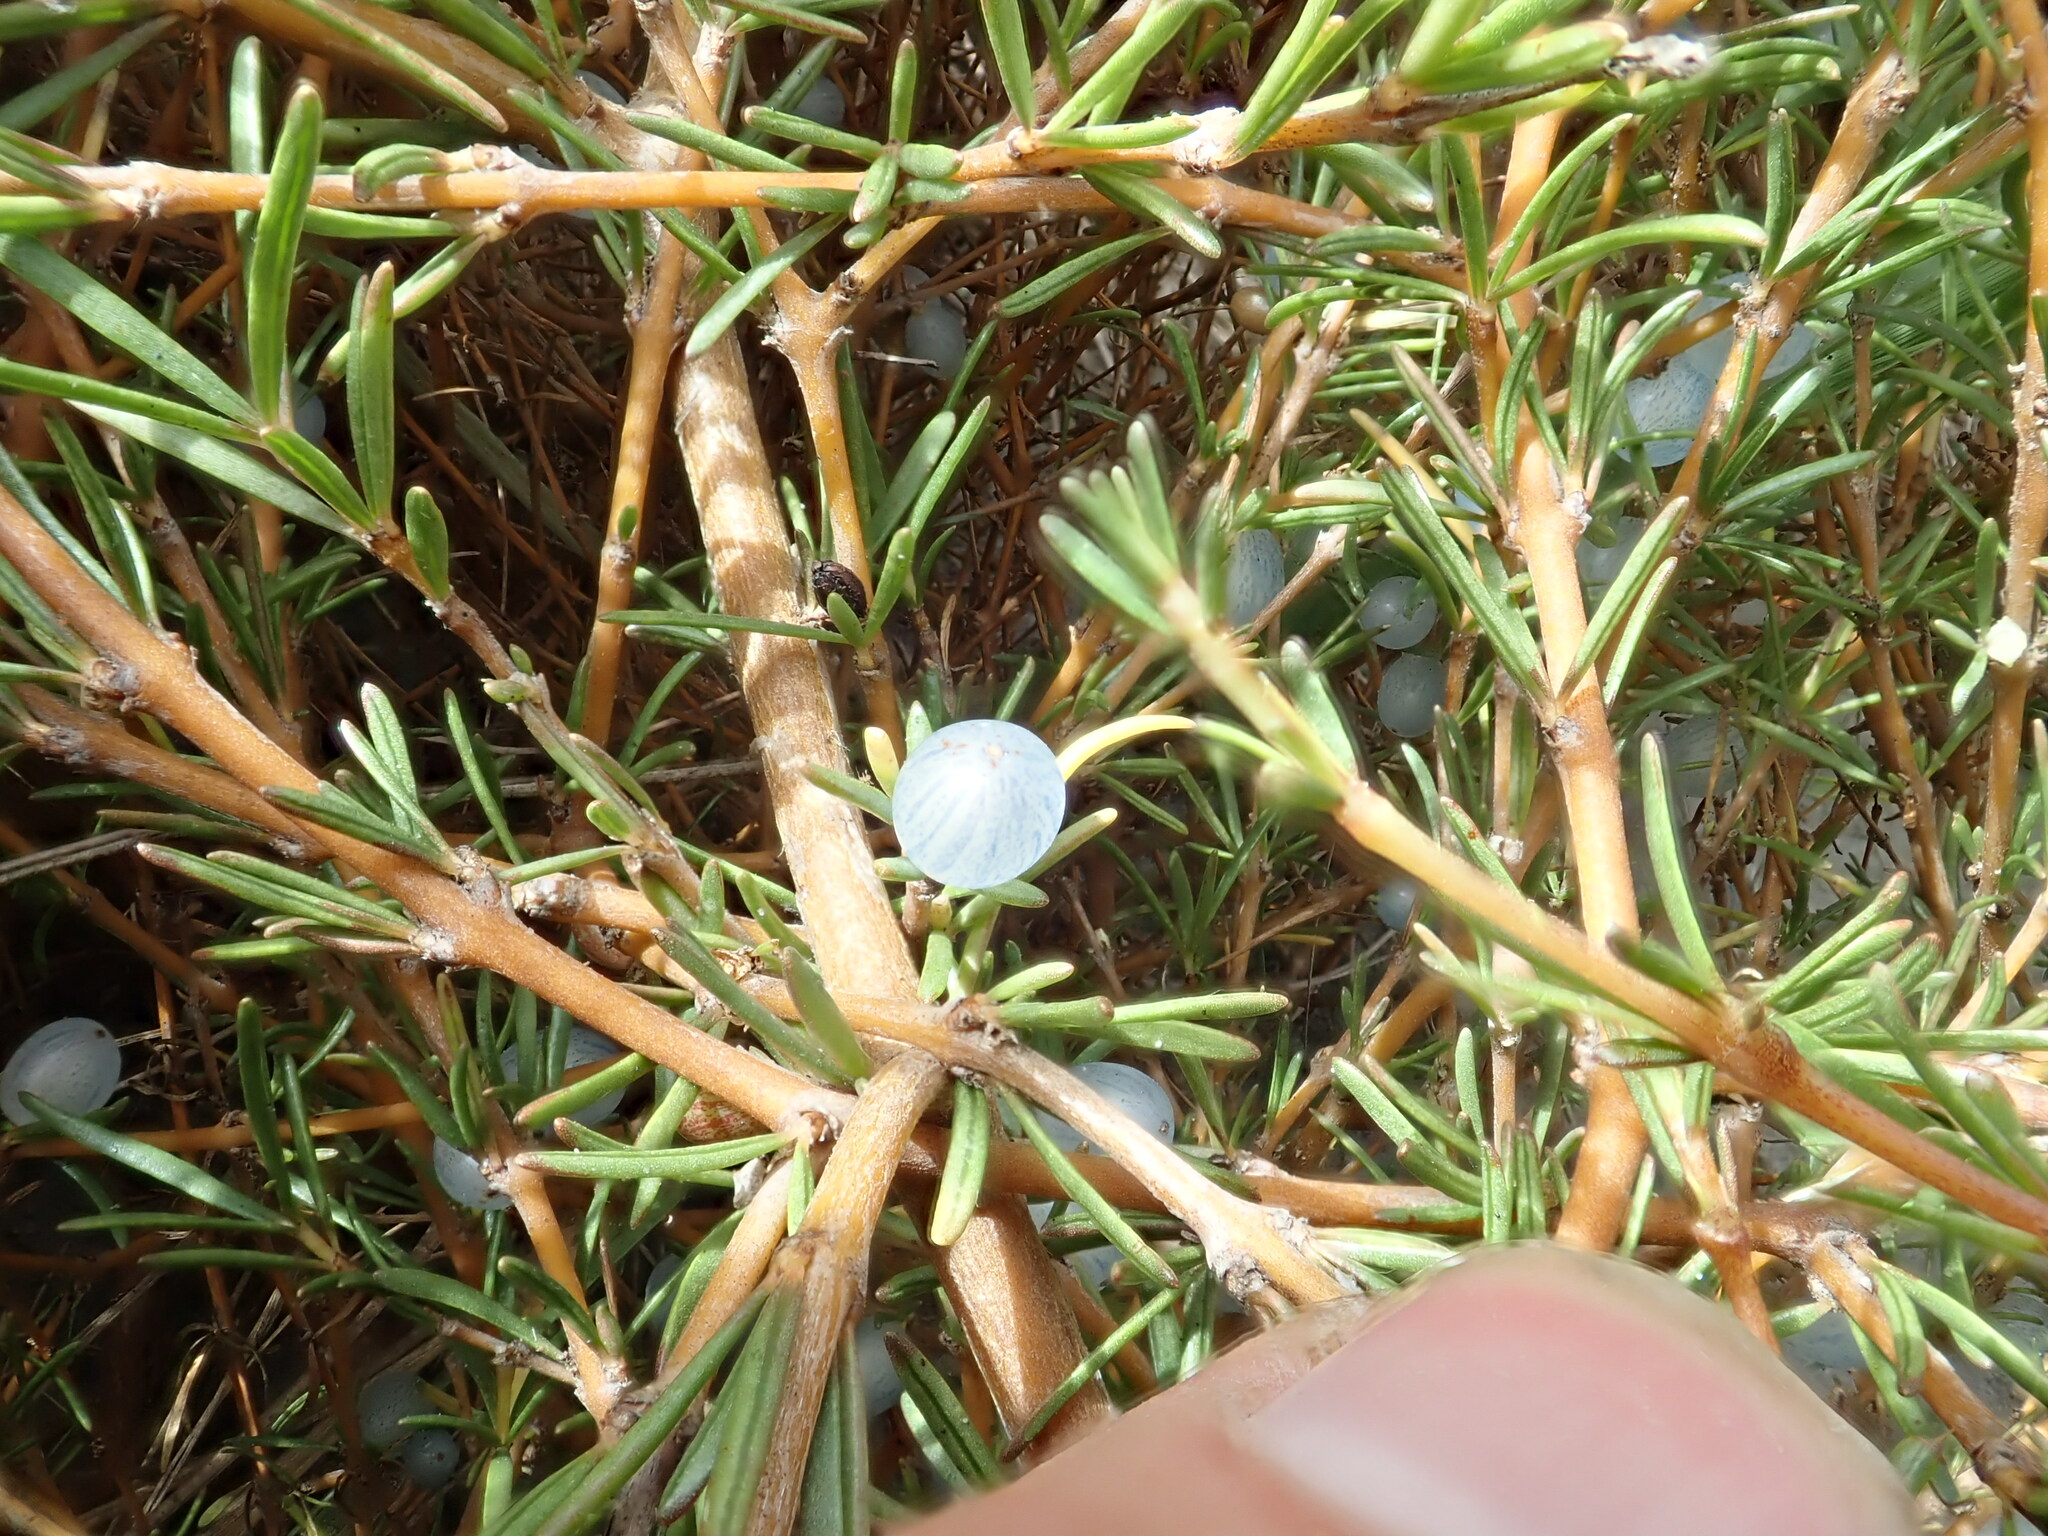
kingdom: Plantae
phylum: Tracheophyta
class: Magnoliopsida
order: Gentianales
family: Rubiaceae
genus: Coprosma
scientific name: Coprosma acerosa
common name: Sand coprosma
